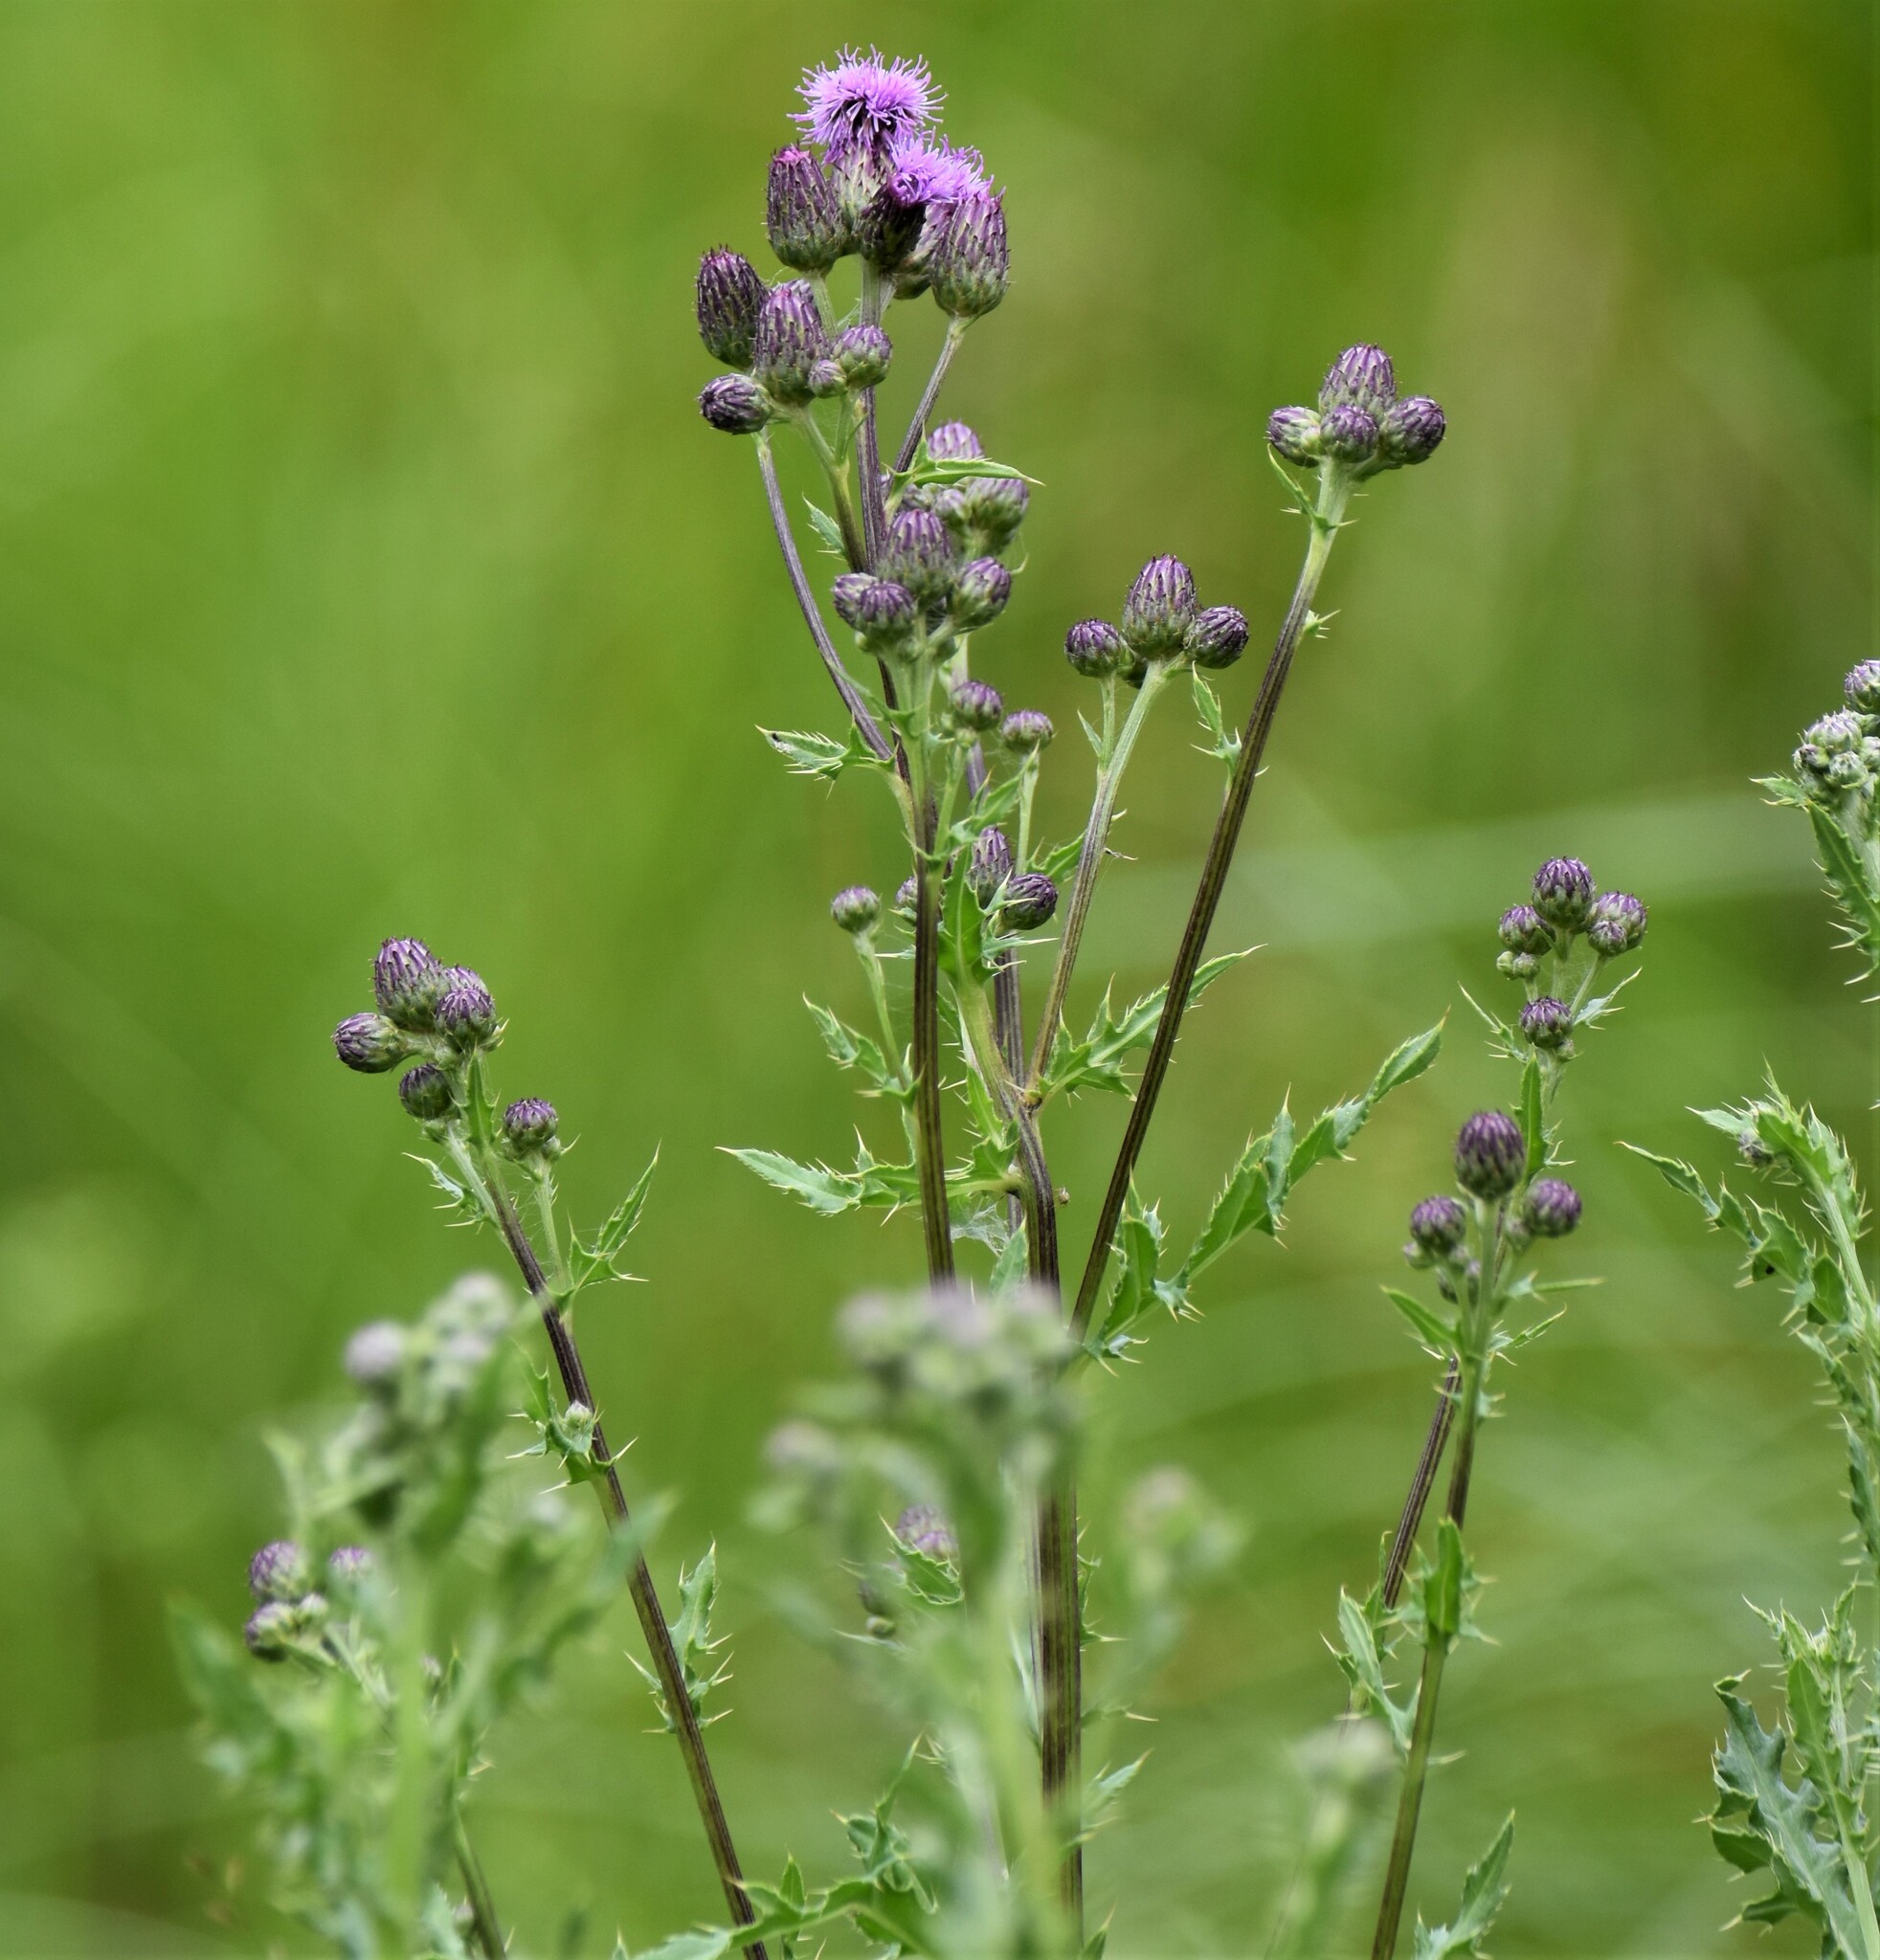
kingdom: Plantae
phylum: Tracheophyta
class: Magnoliopsida
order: Asterales
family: Asteraceae
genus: Cirsium
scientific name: Cirsium arvense
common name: Creeping thistle
